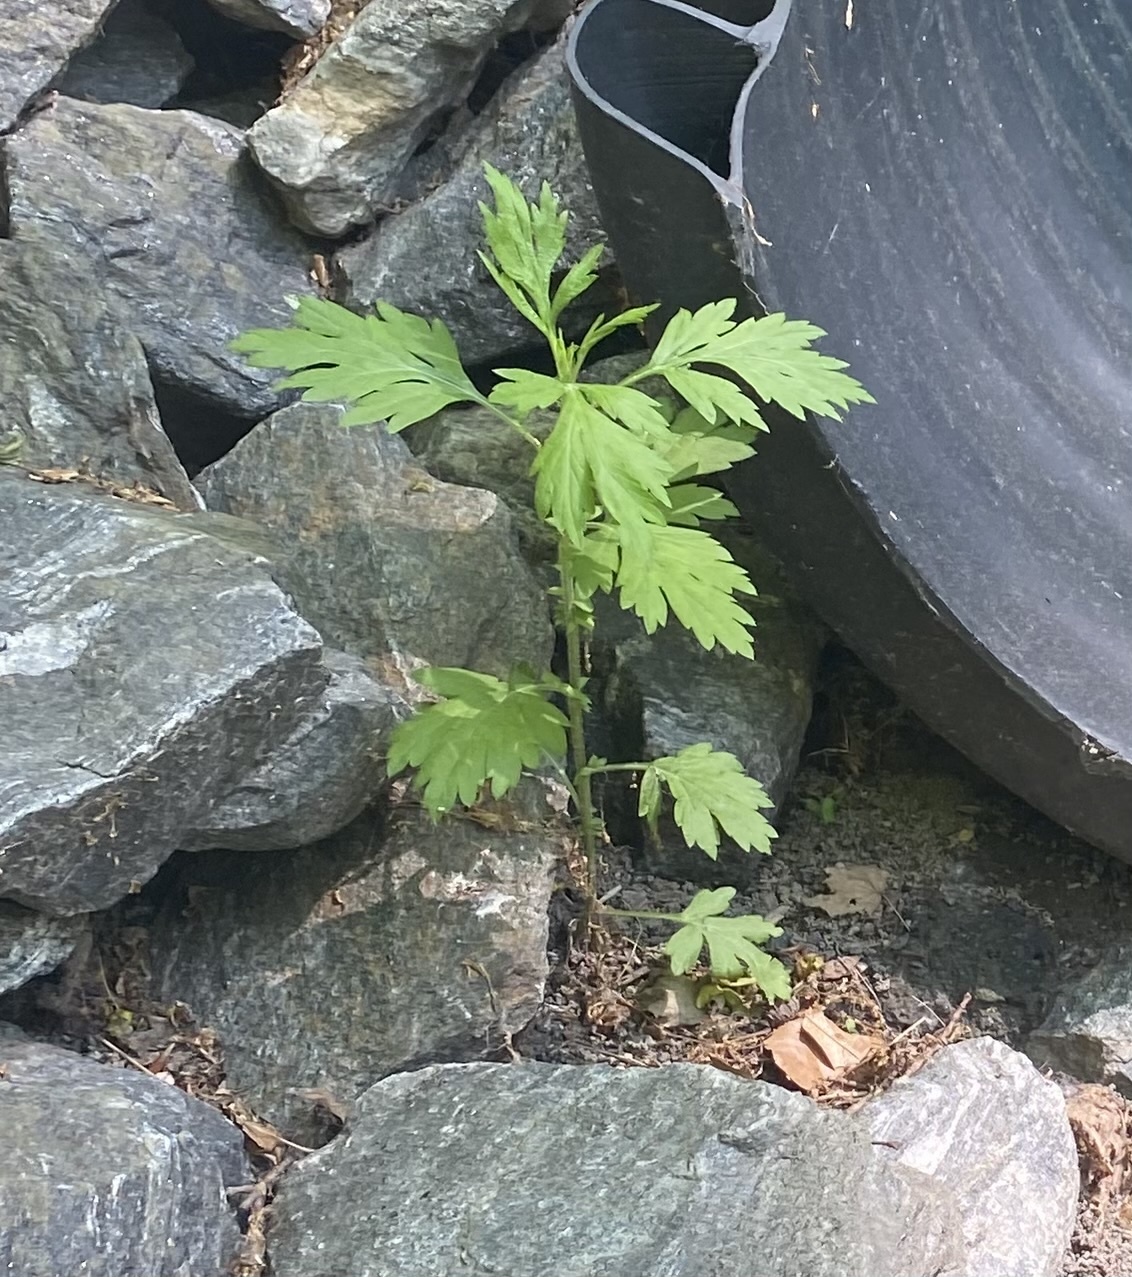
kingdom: Plantae
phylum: Tracheophyta
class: Magnoliopsida
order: Asterales
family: Asteraceae
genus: Artemisia
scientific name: Artemisia vulgaris
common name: Mugwort
